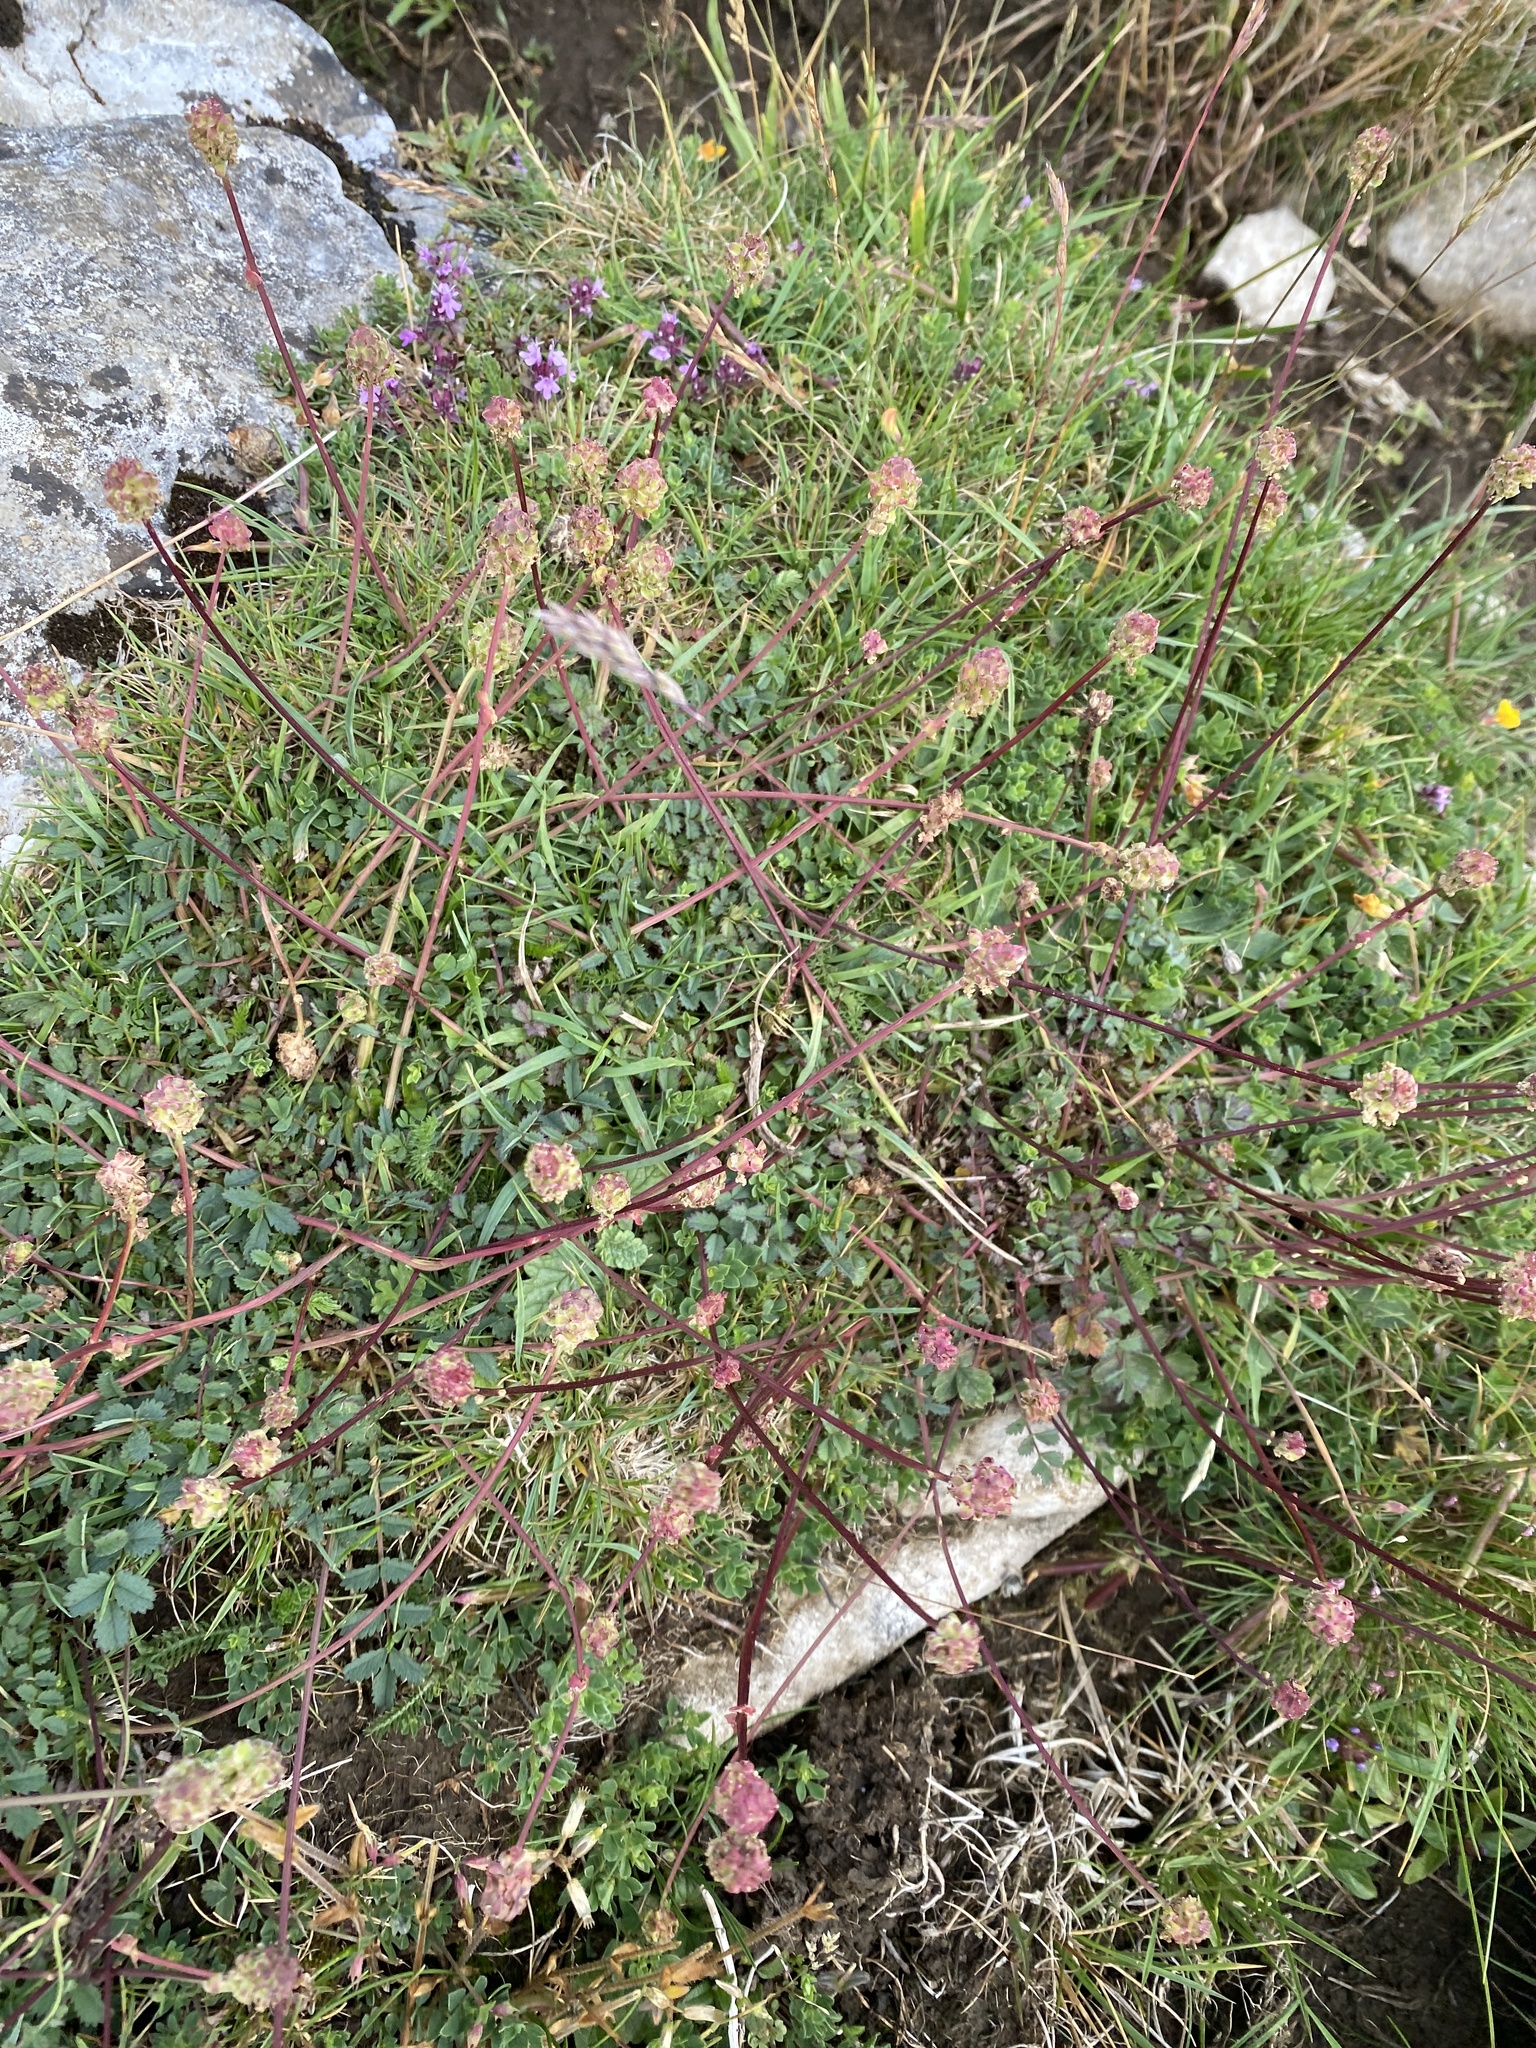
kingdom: Plantae
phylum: Tracheophyta
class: Magnoliopsida
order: Rosales
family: Rosaceae
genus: Poterium
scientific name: Poterium sanguisorba
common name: Salad burnet
